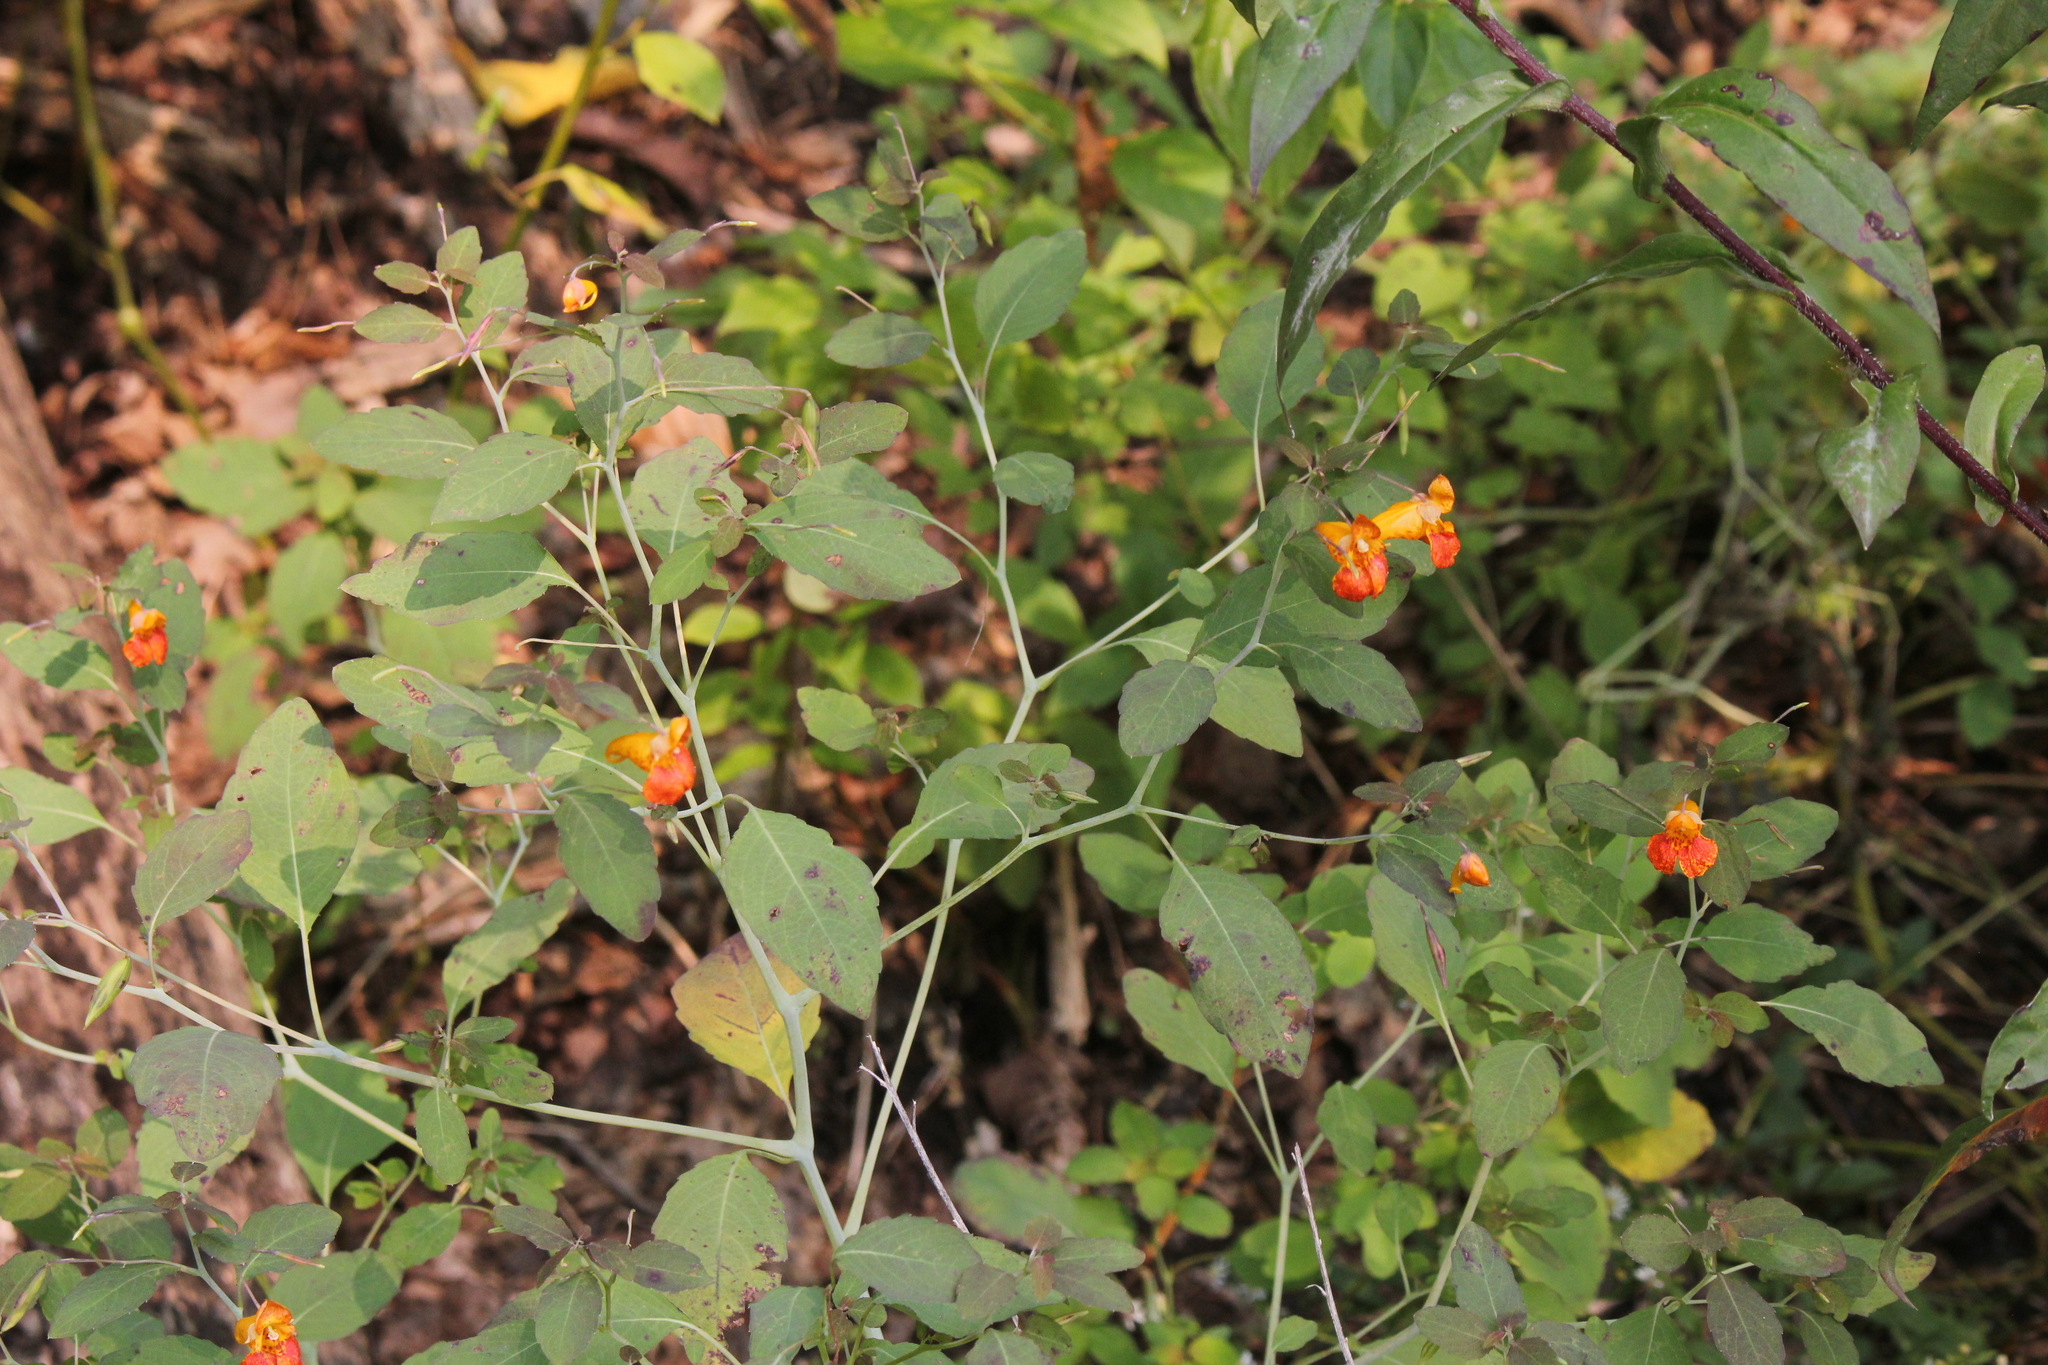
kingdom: Plantae
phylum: Tracheophyta
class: Magnoliopsida
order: Ericales
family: Balsaminaceae
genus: Impatiens
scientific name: Impatiens capensis
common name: Orange balsam
